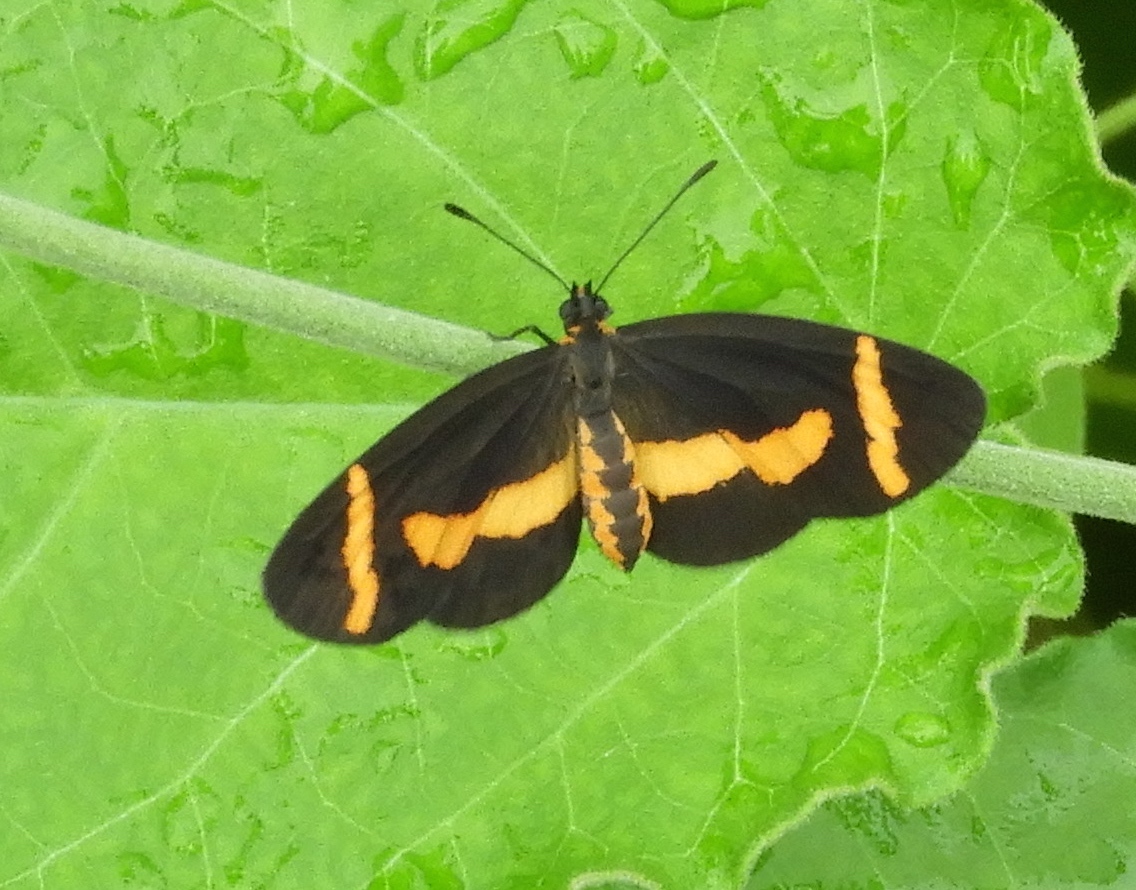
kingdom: Animalia
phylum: Arthropoda
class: Insecta
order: Lepidoptera
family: Nymphalidae
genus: Microtia
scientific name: Microtia elva
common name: Elf
